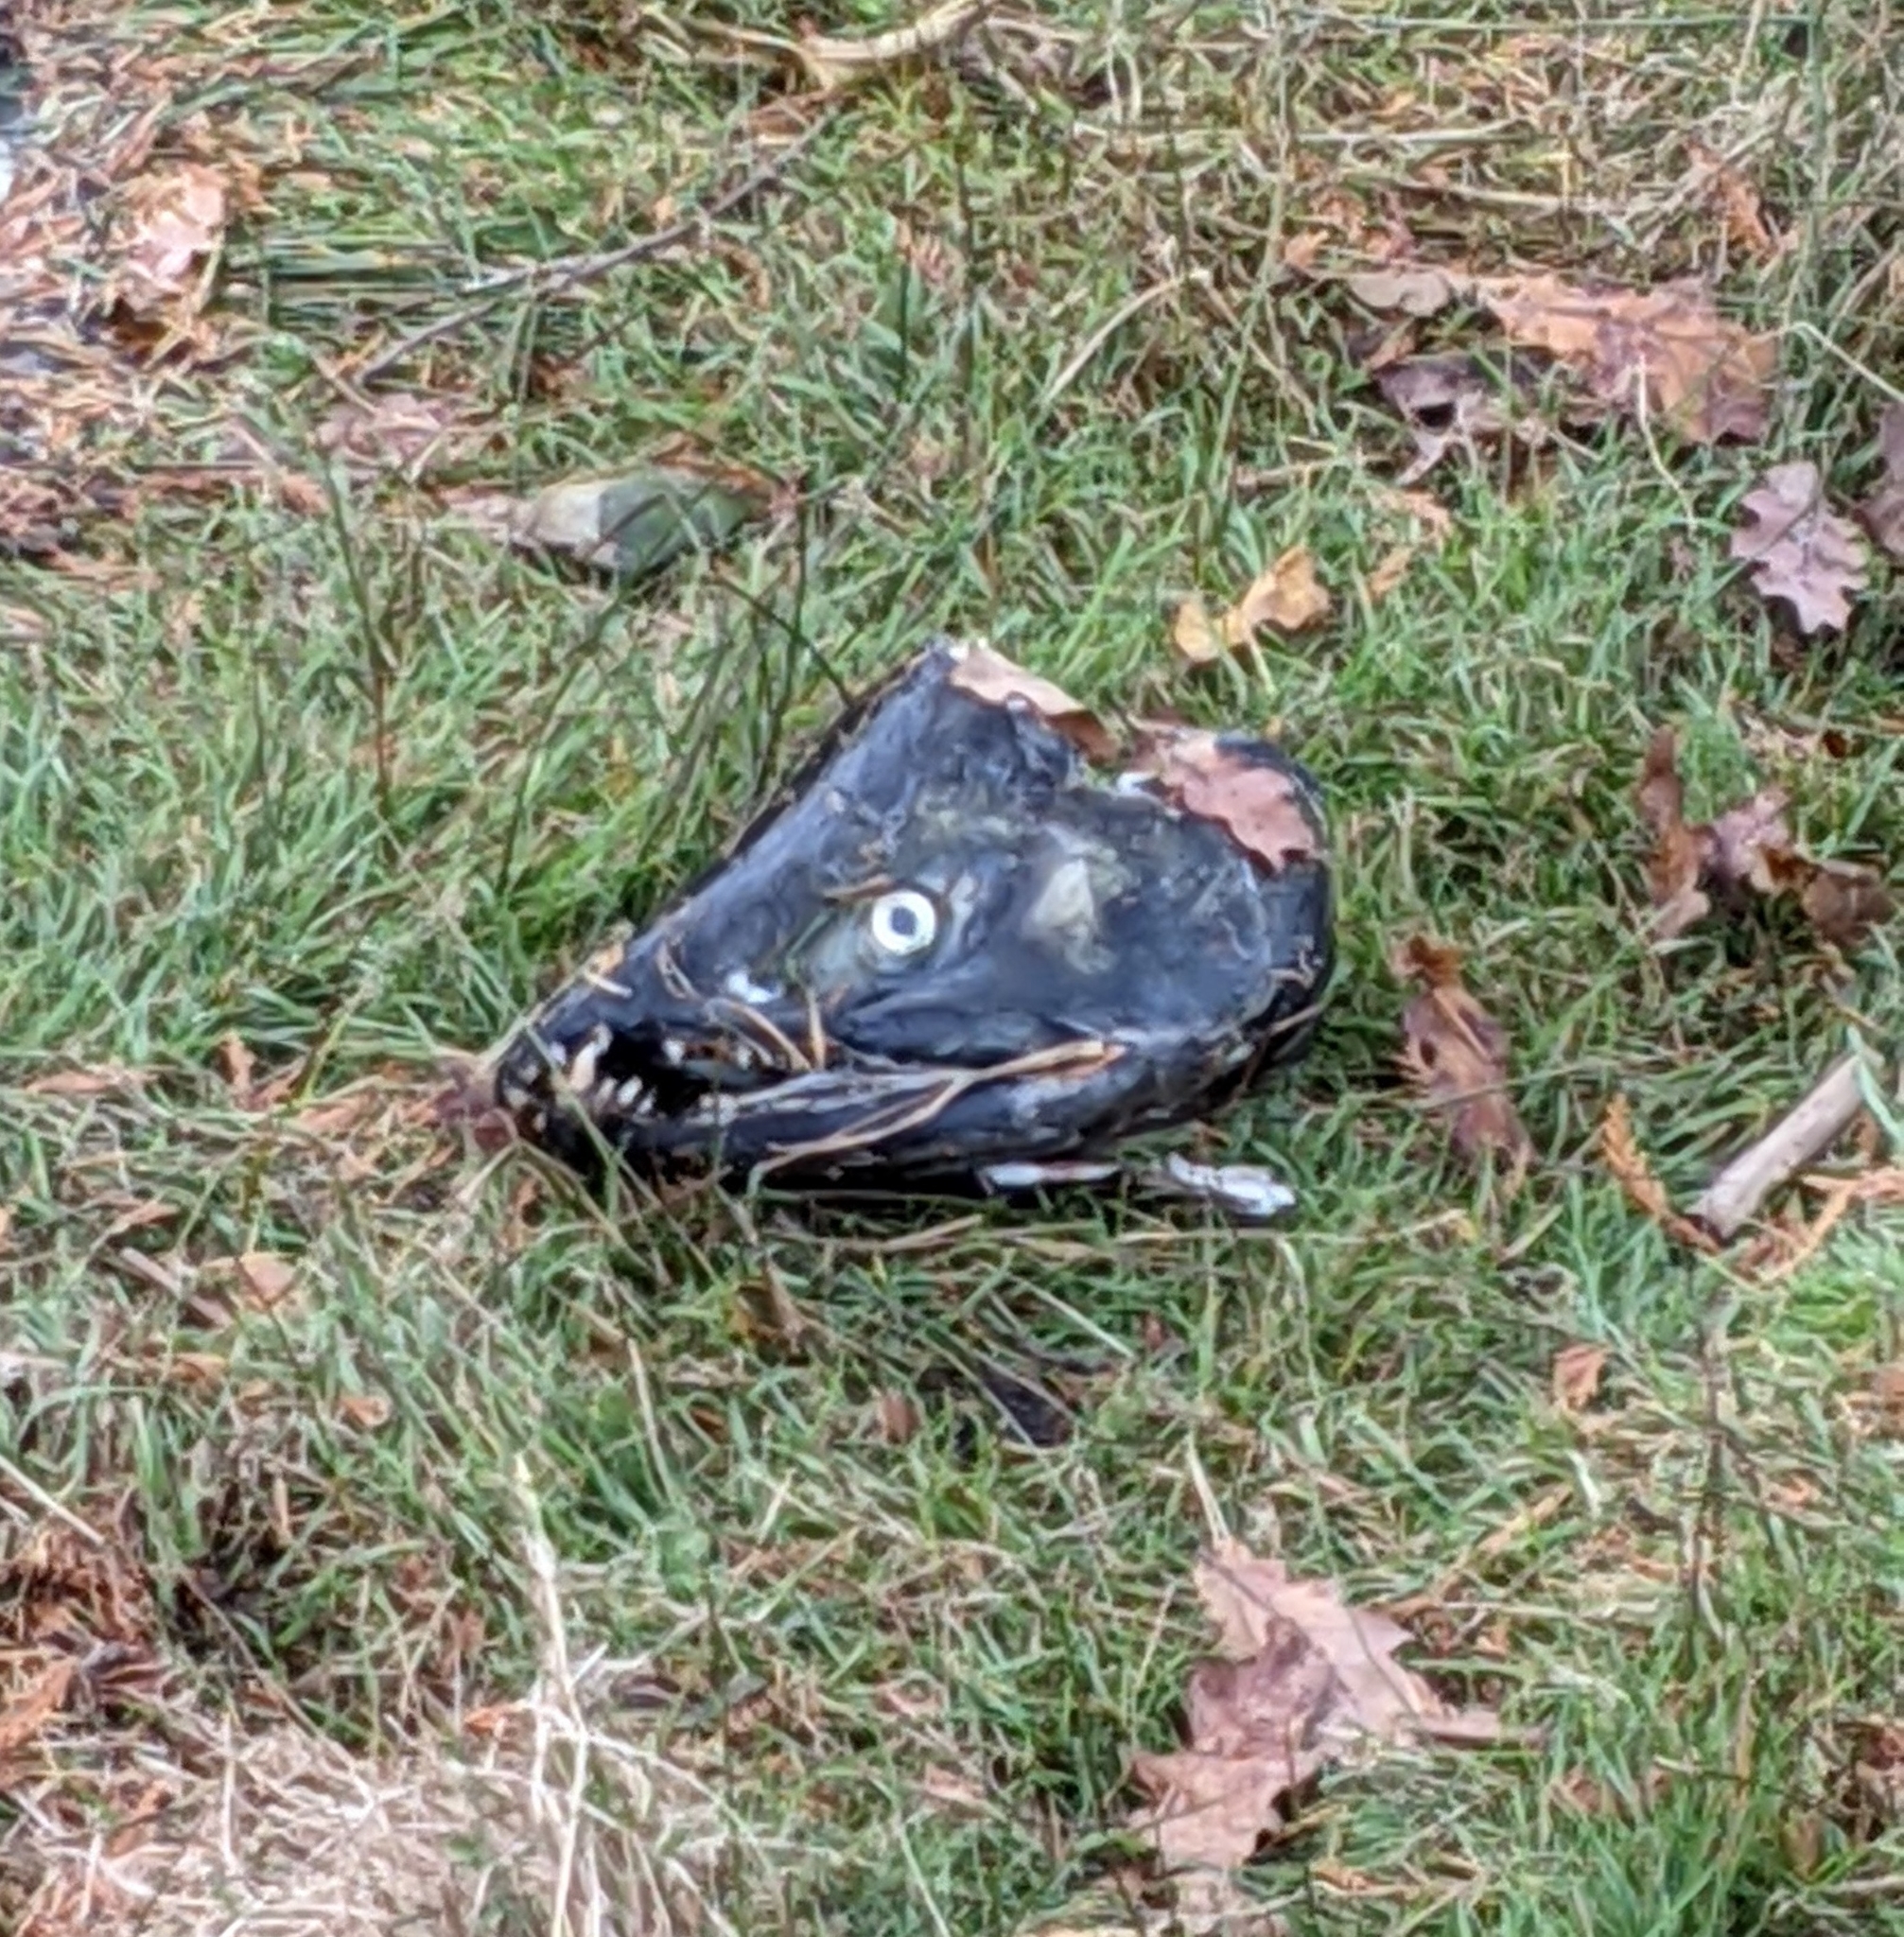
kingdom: Animalia
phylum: Chordata
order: Salmoniformes
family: Salmonidae
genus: Oncorhynchus
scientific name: Oncorhynchus keta
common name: Chum salmon
